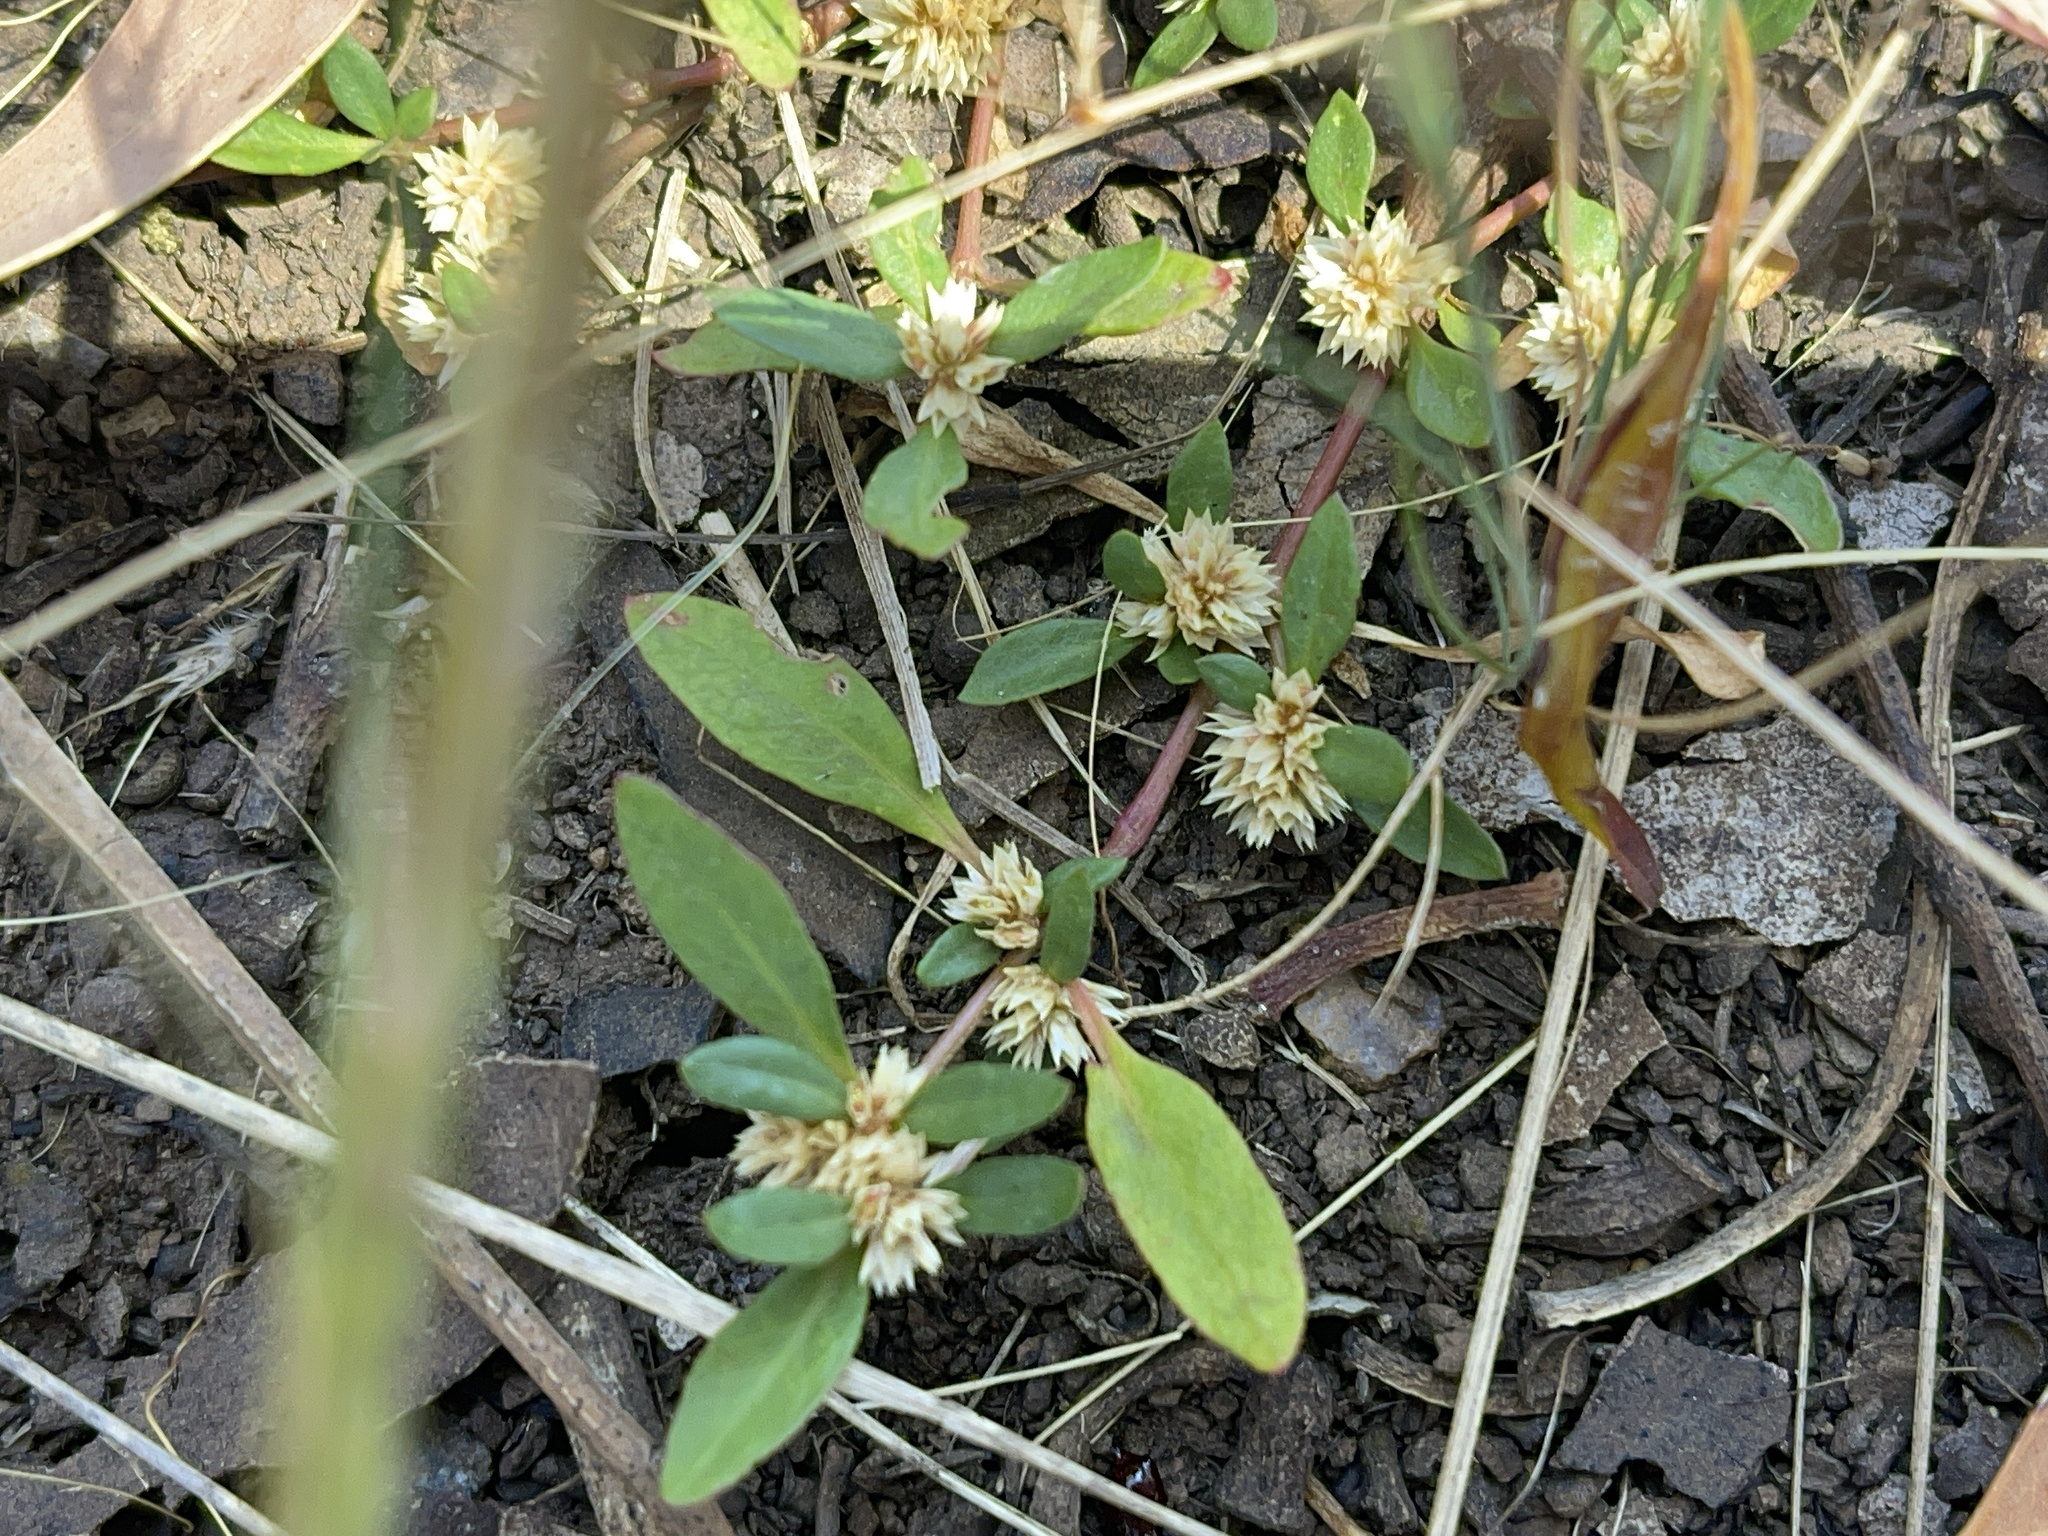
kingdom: Plantae
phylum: Tracheophyta
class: Magnoliopsida
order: Caryophyllales
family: Amaranthaceae
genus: Alternanthera
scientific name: Alternanthera denticulata
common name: Lesser joyweed
